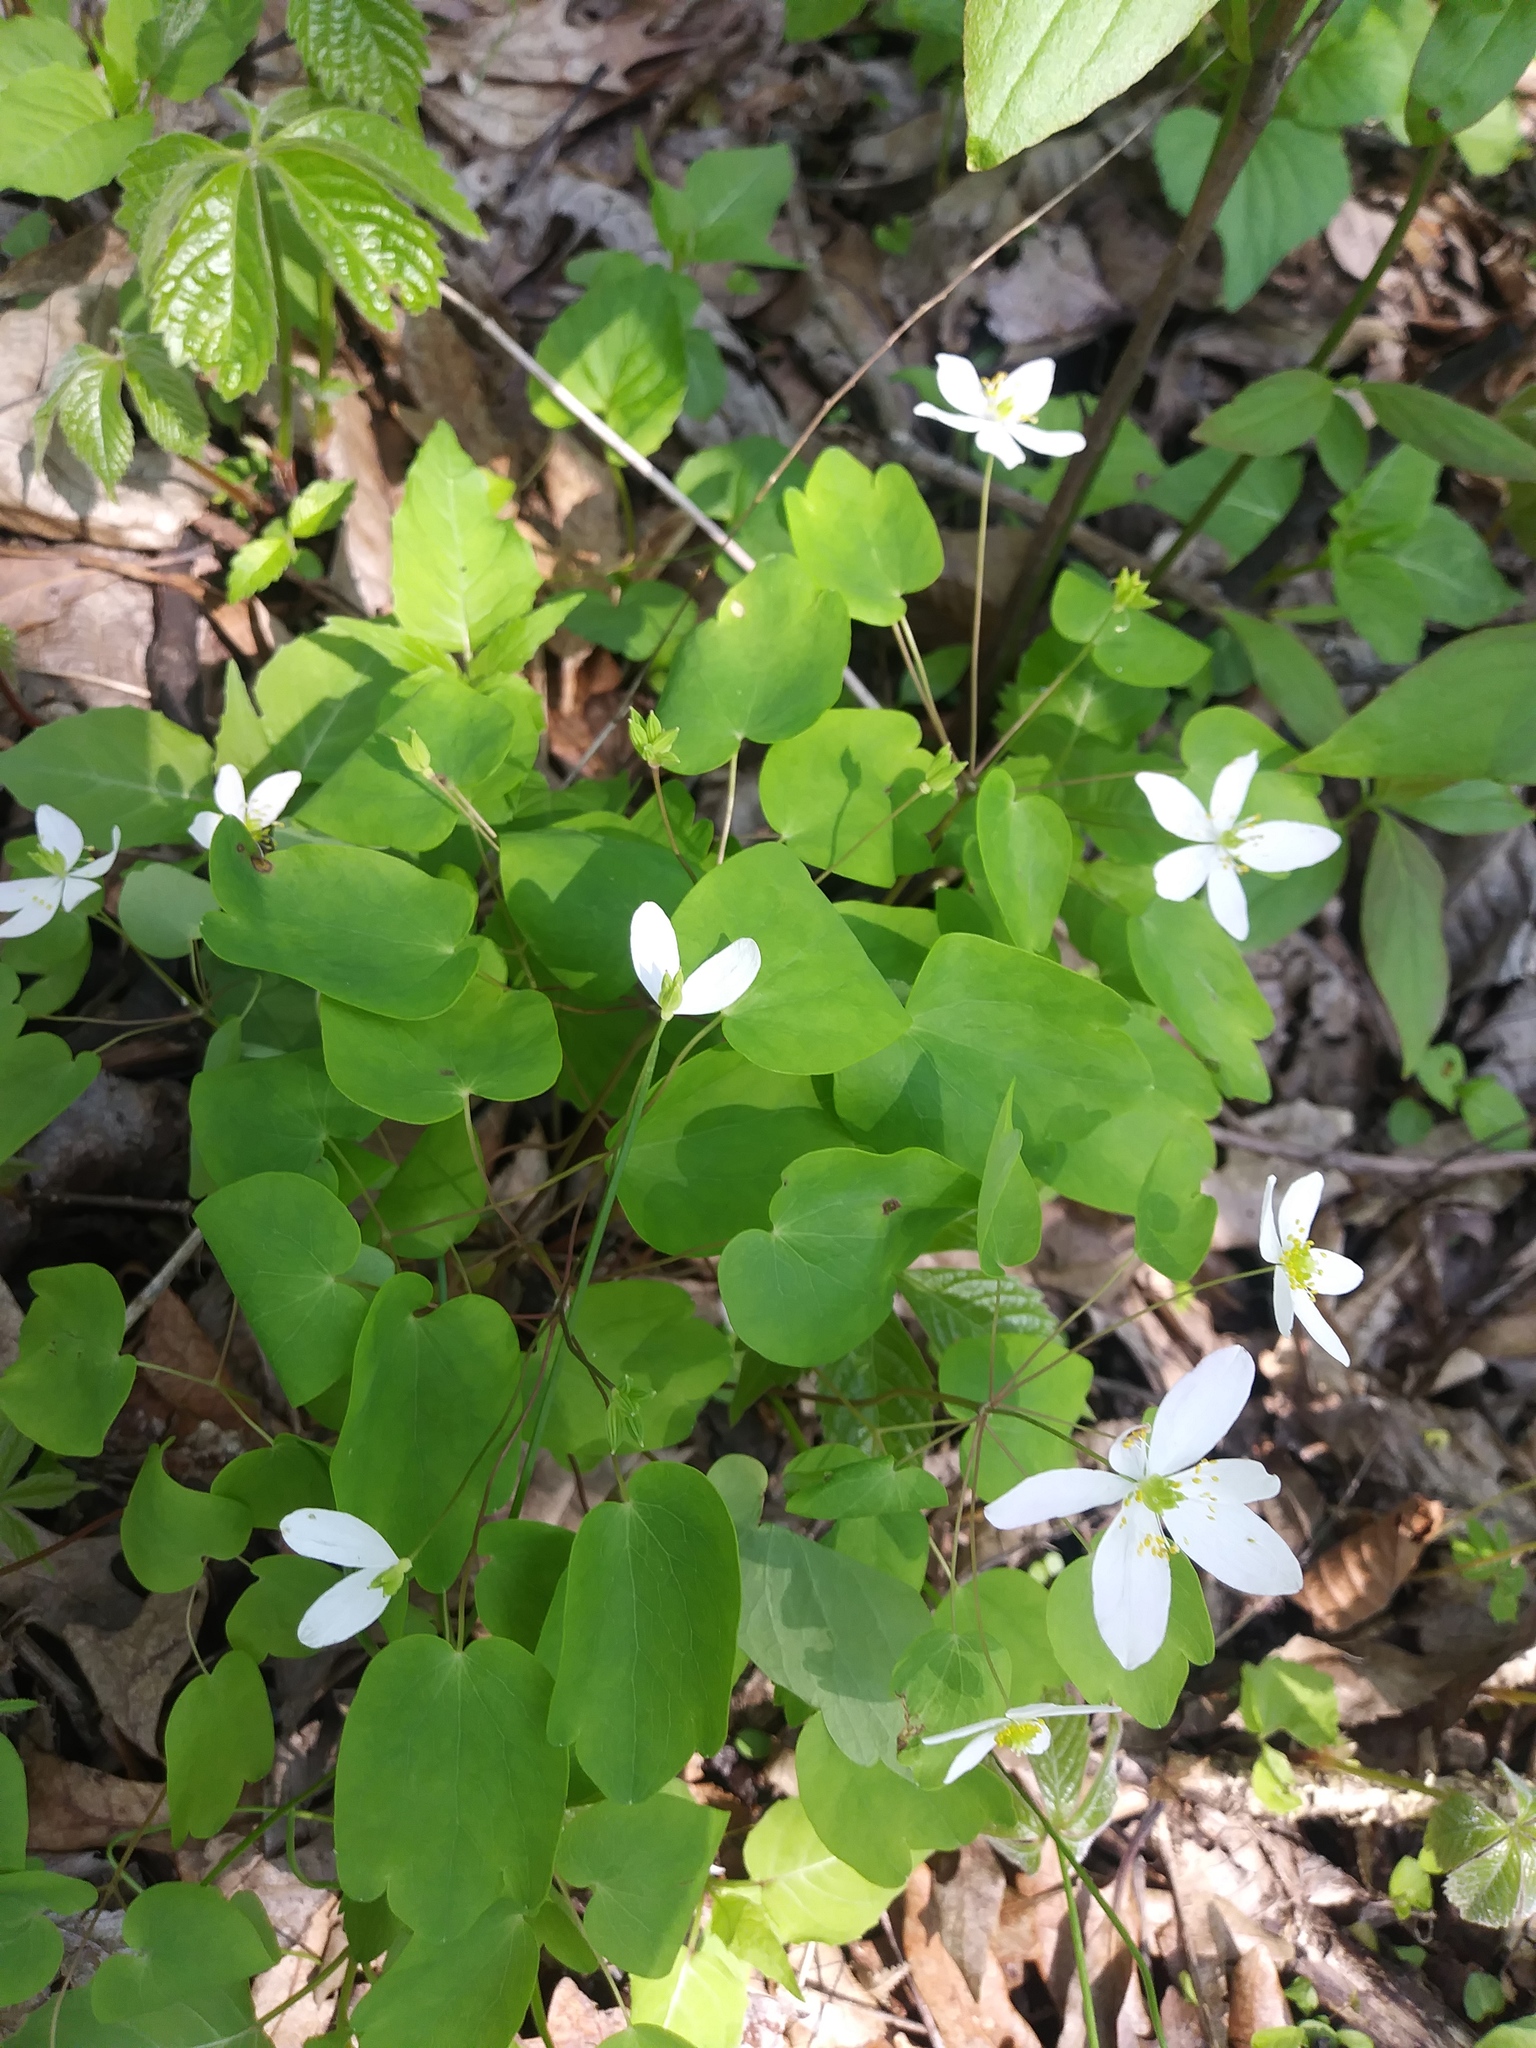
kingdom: Plantae
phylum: Tracheophyta
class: Magnoliopsida
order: Ranunculales
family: Ranunculaceae
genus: Thalictrum
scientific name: Thalictrum thalictroides
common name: Rue-anemone
